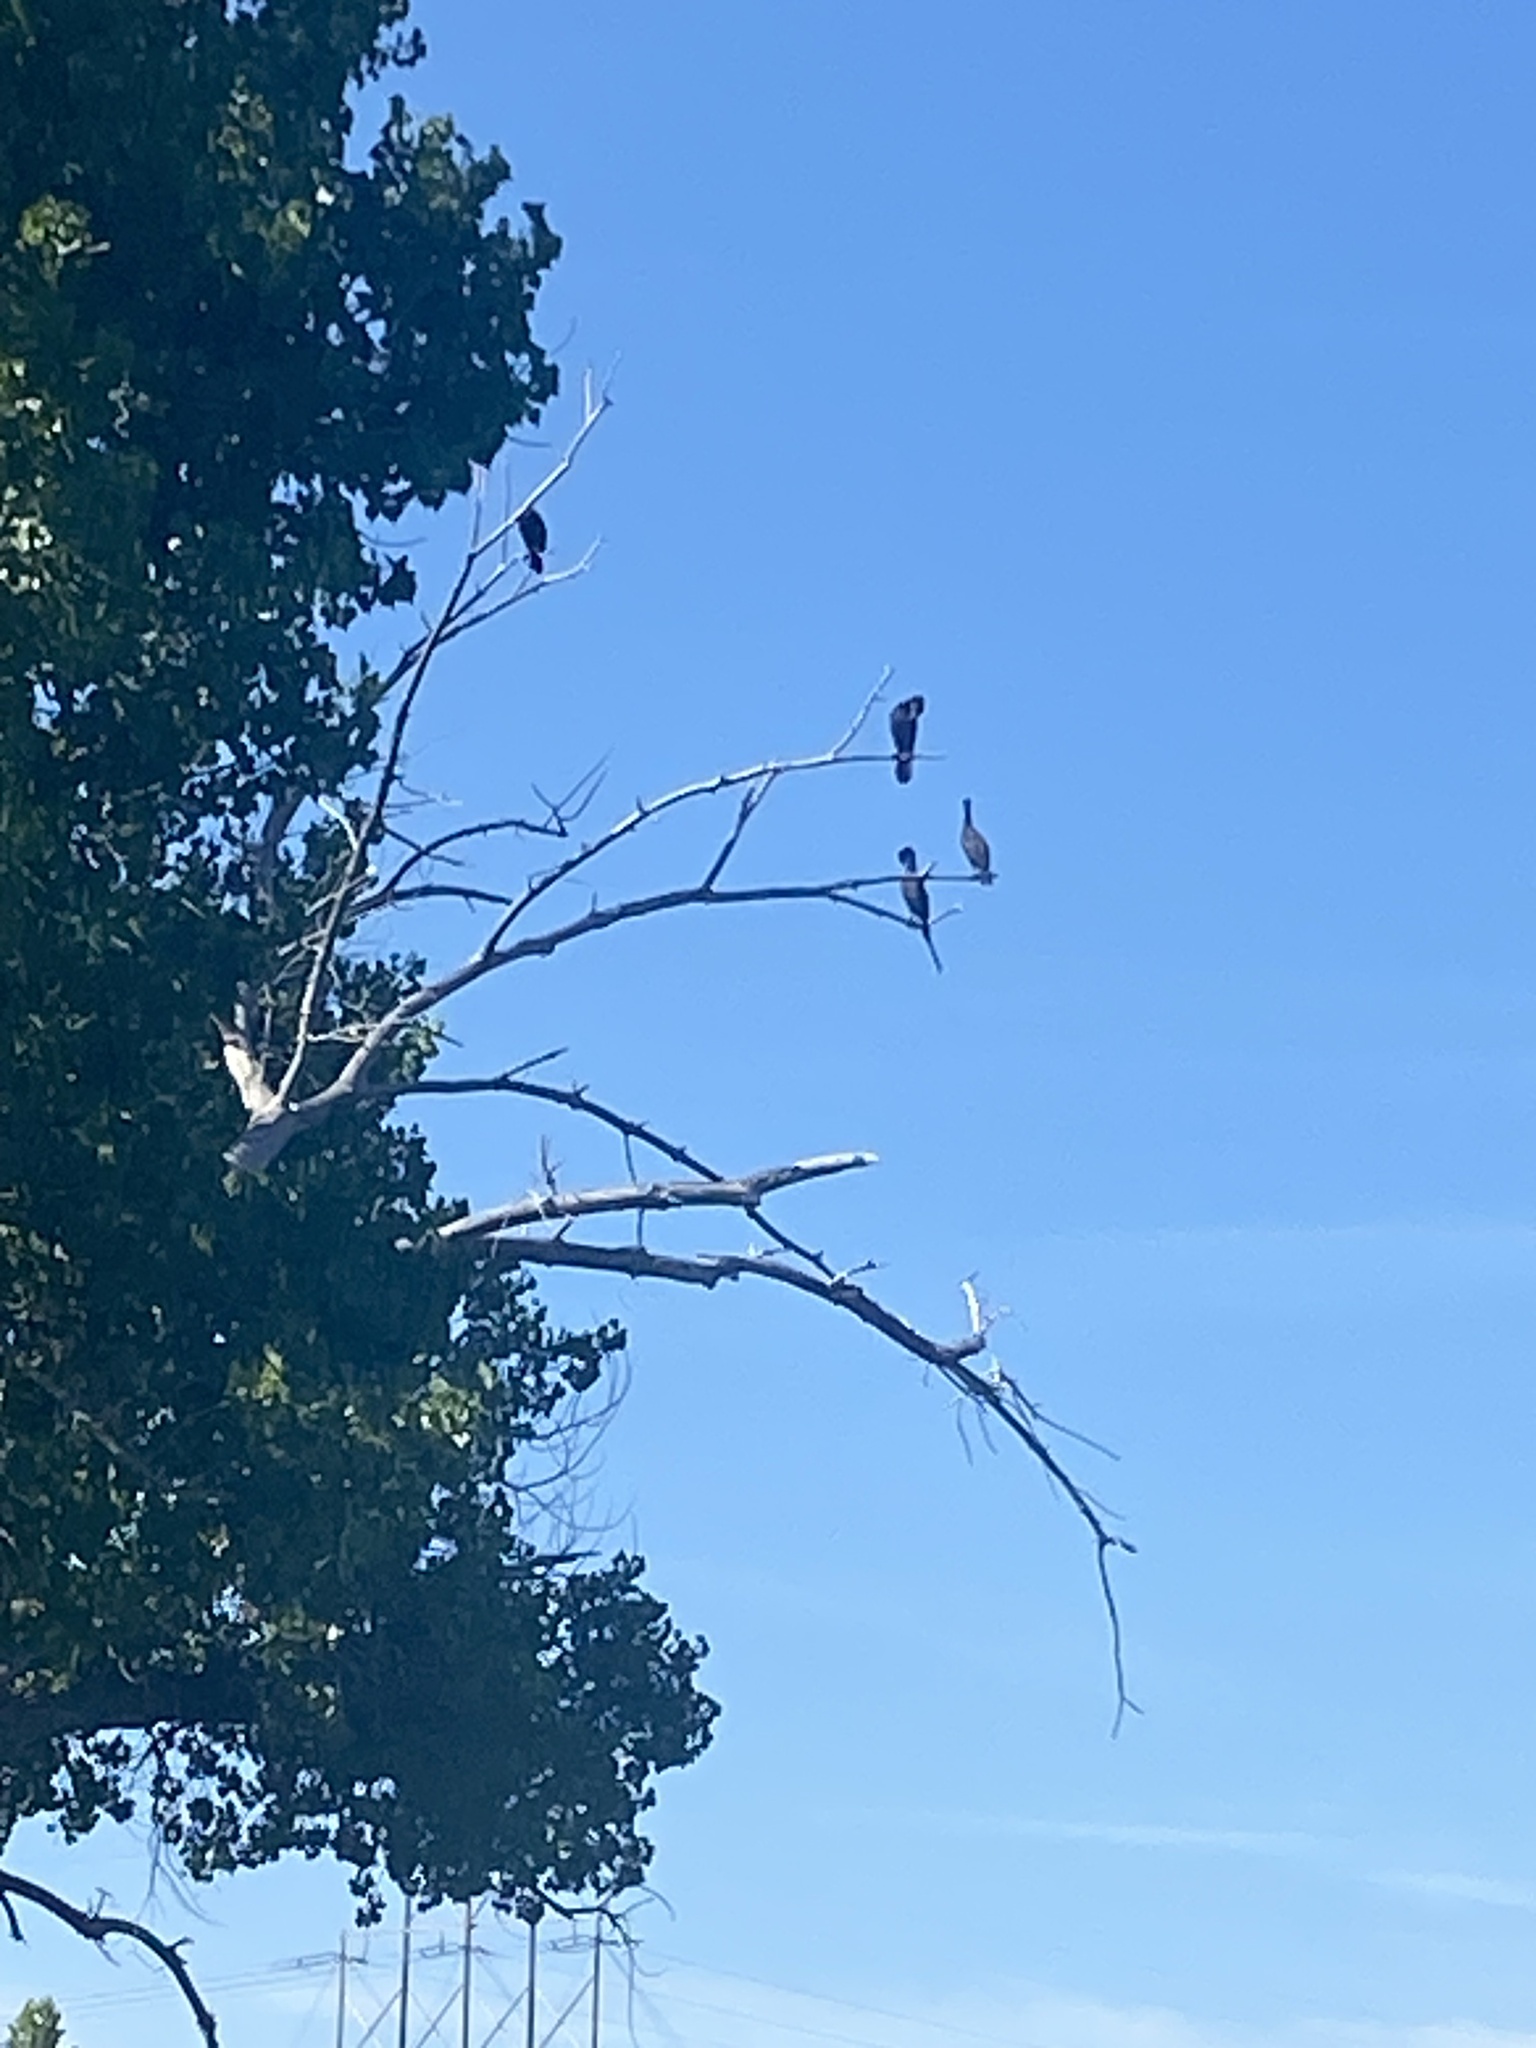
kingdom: Animalia
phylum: Chordata
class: Aves
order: Suliformes
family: Phalacrocoracidae
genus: Phalacrocorax
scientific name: Phalacrocorax auritus
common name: Double-crested cormorant
